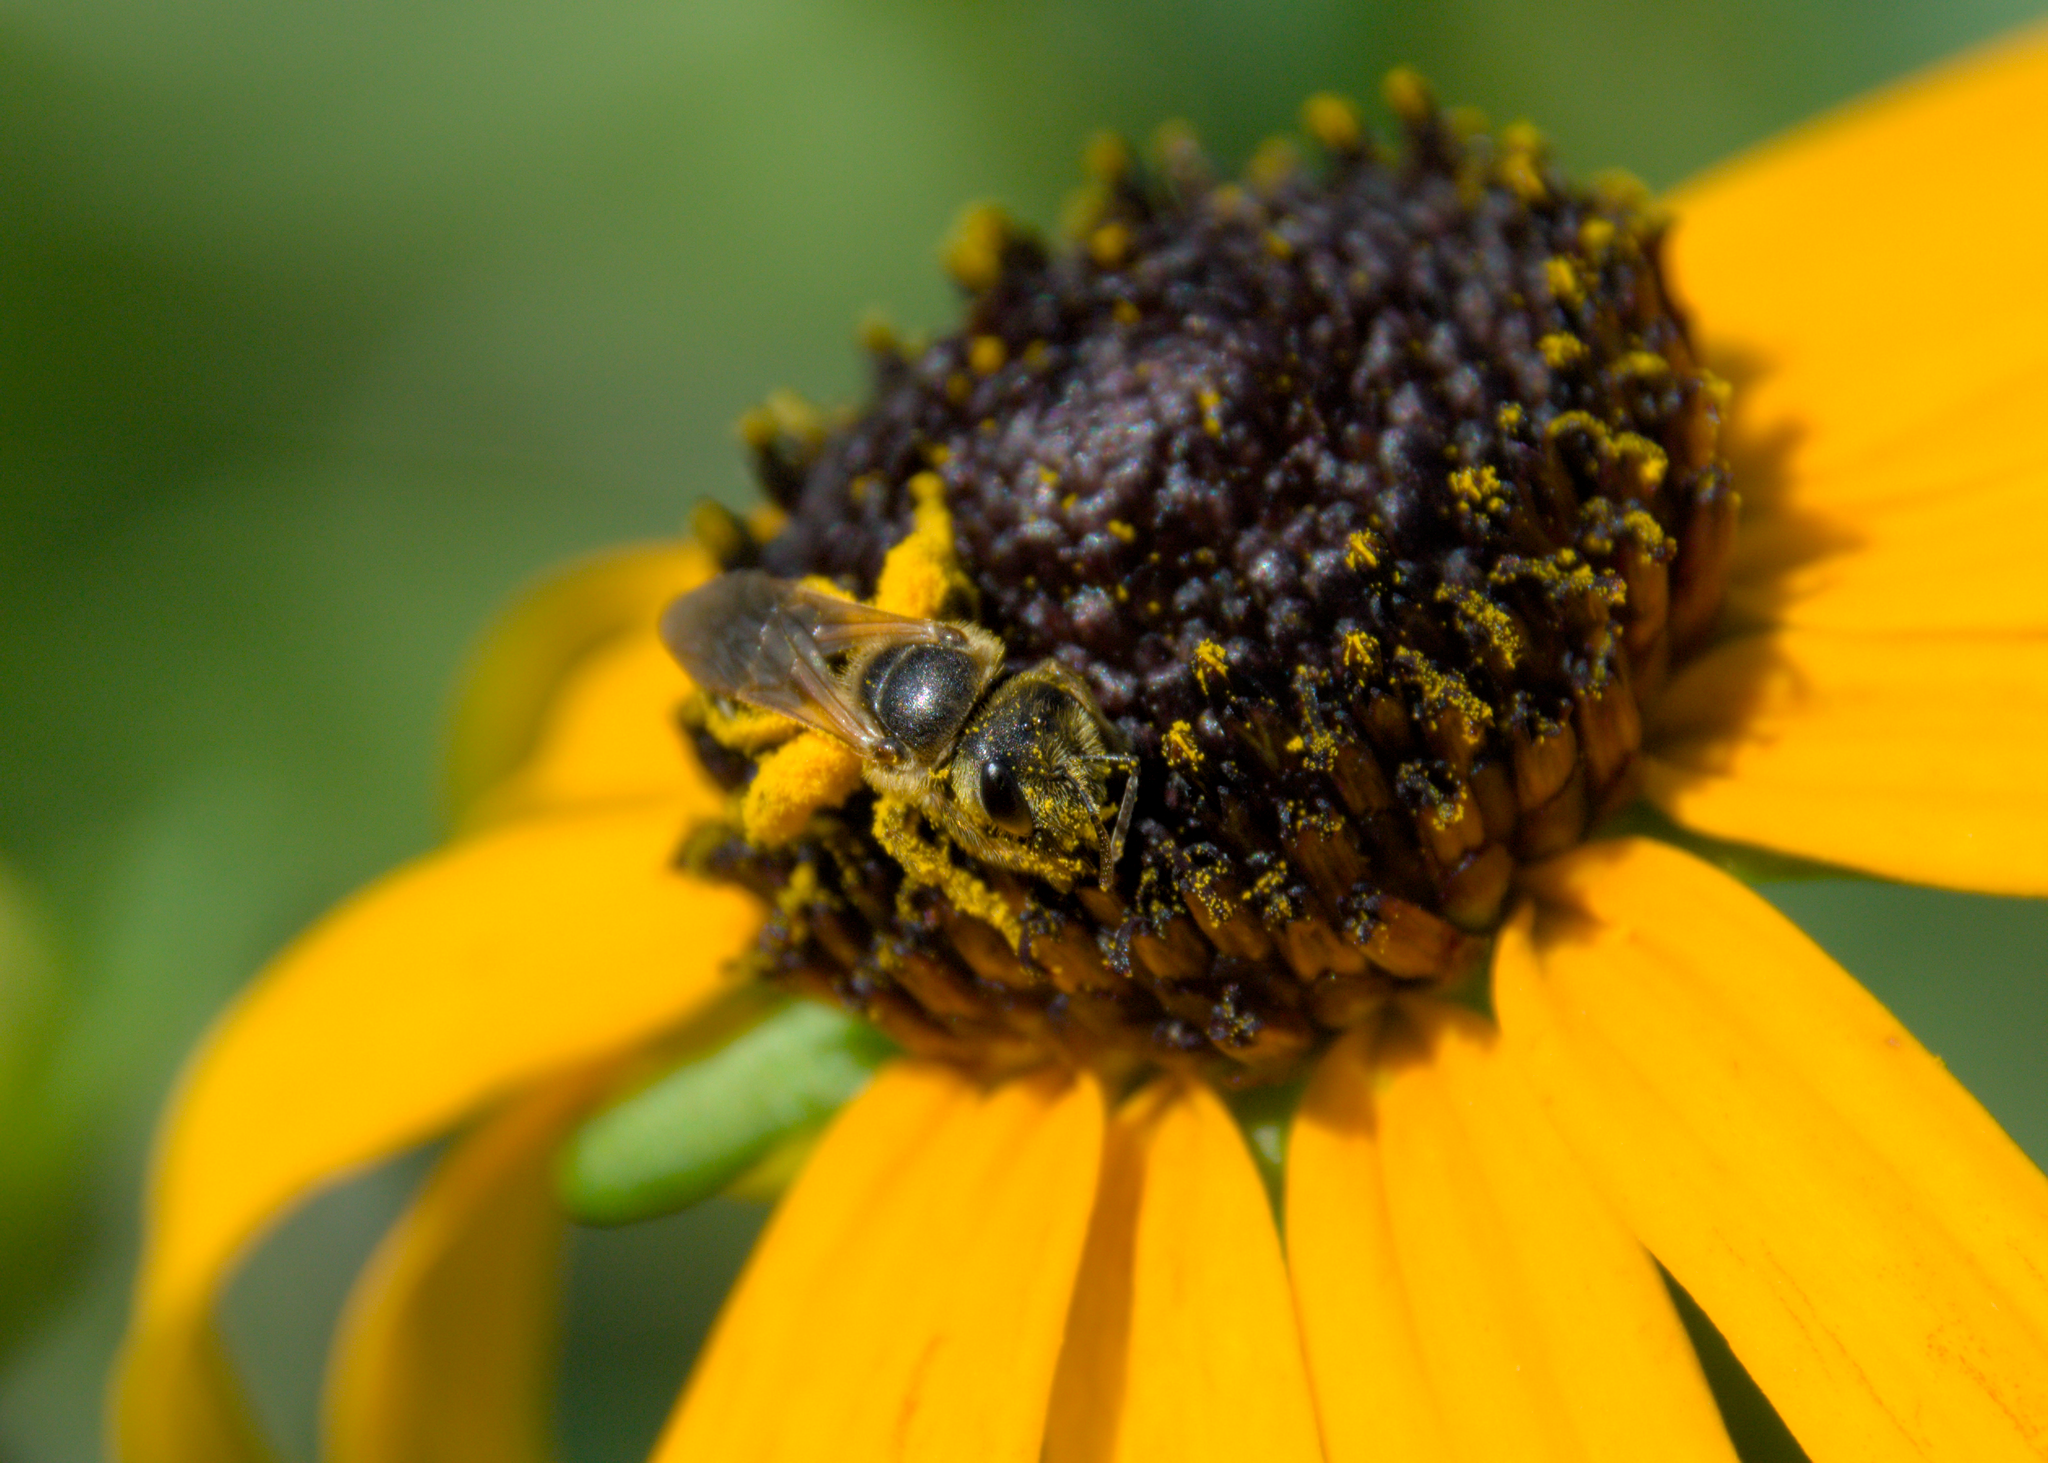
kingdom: Animalia
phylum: Arthropoda
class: Insecta
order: Hymenoptera
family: Halictidae
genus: Halictus
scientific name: Halictus ligatus
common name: Ligated furrow bee
